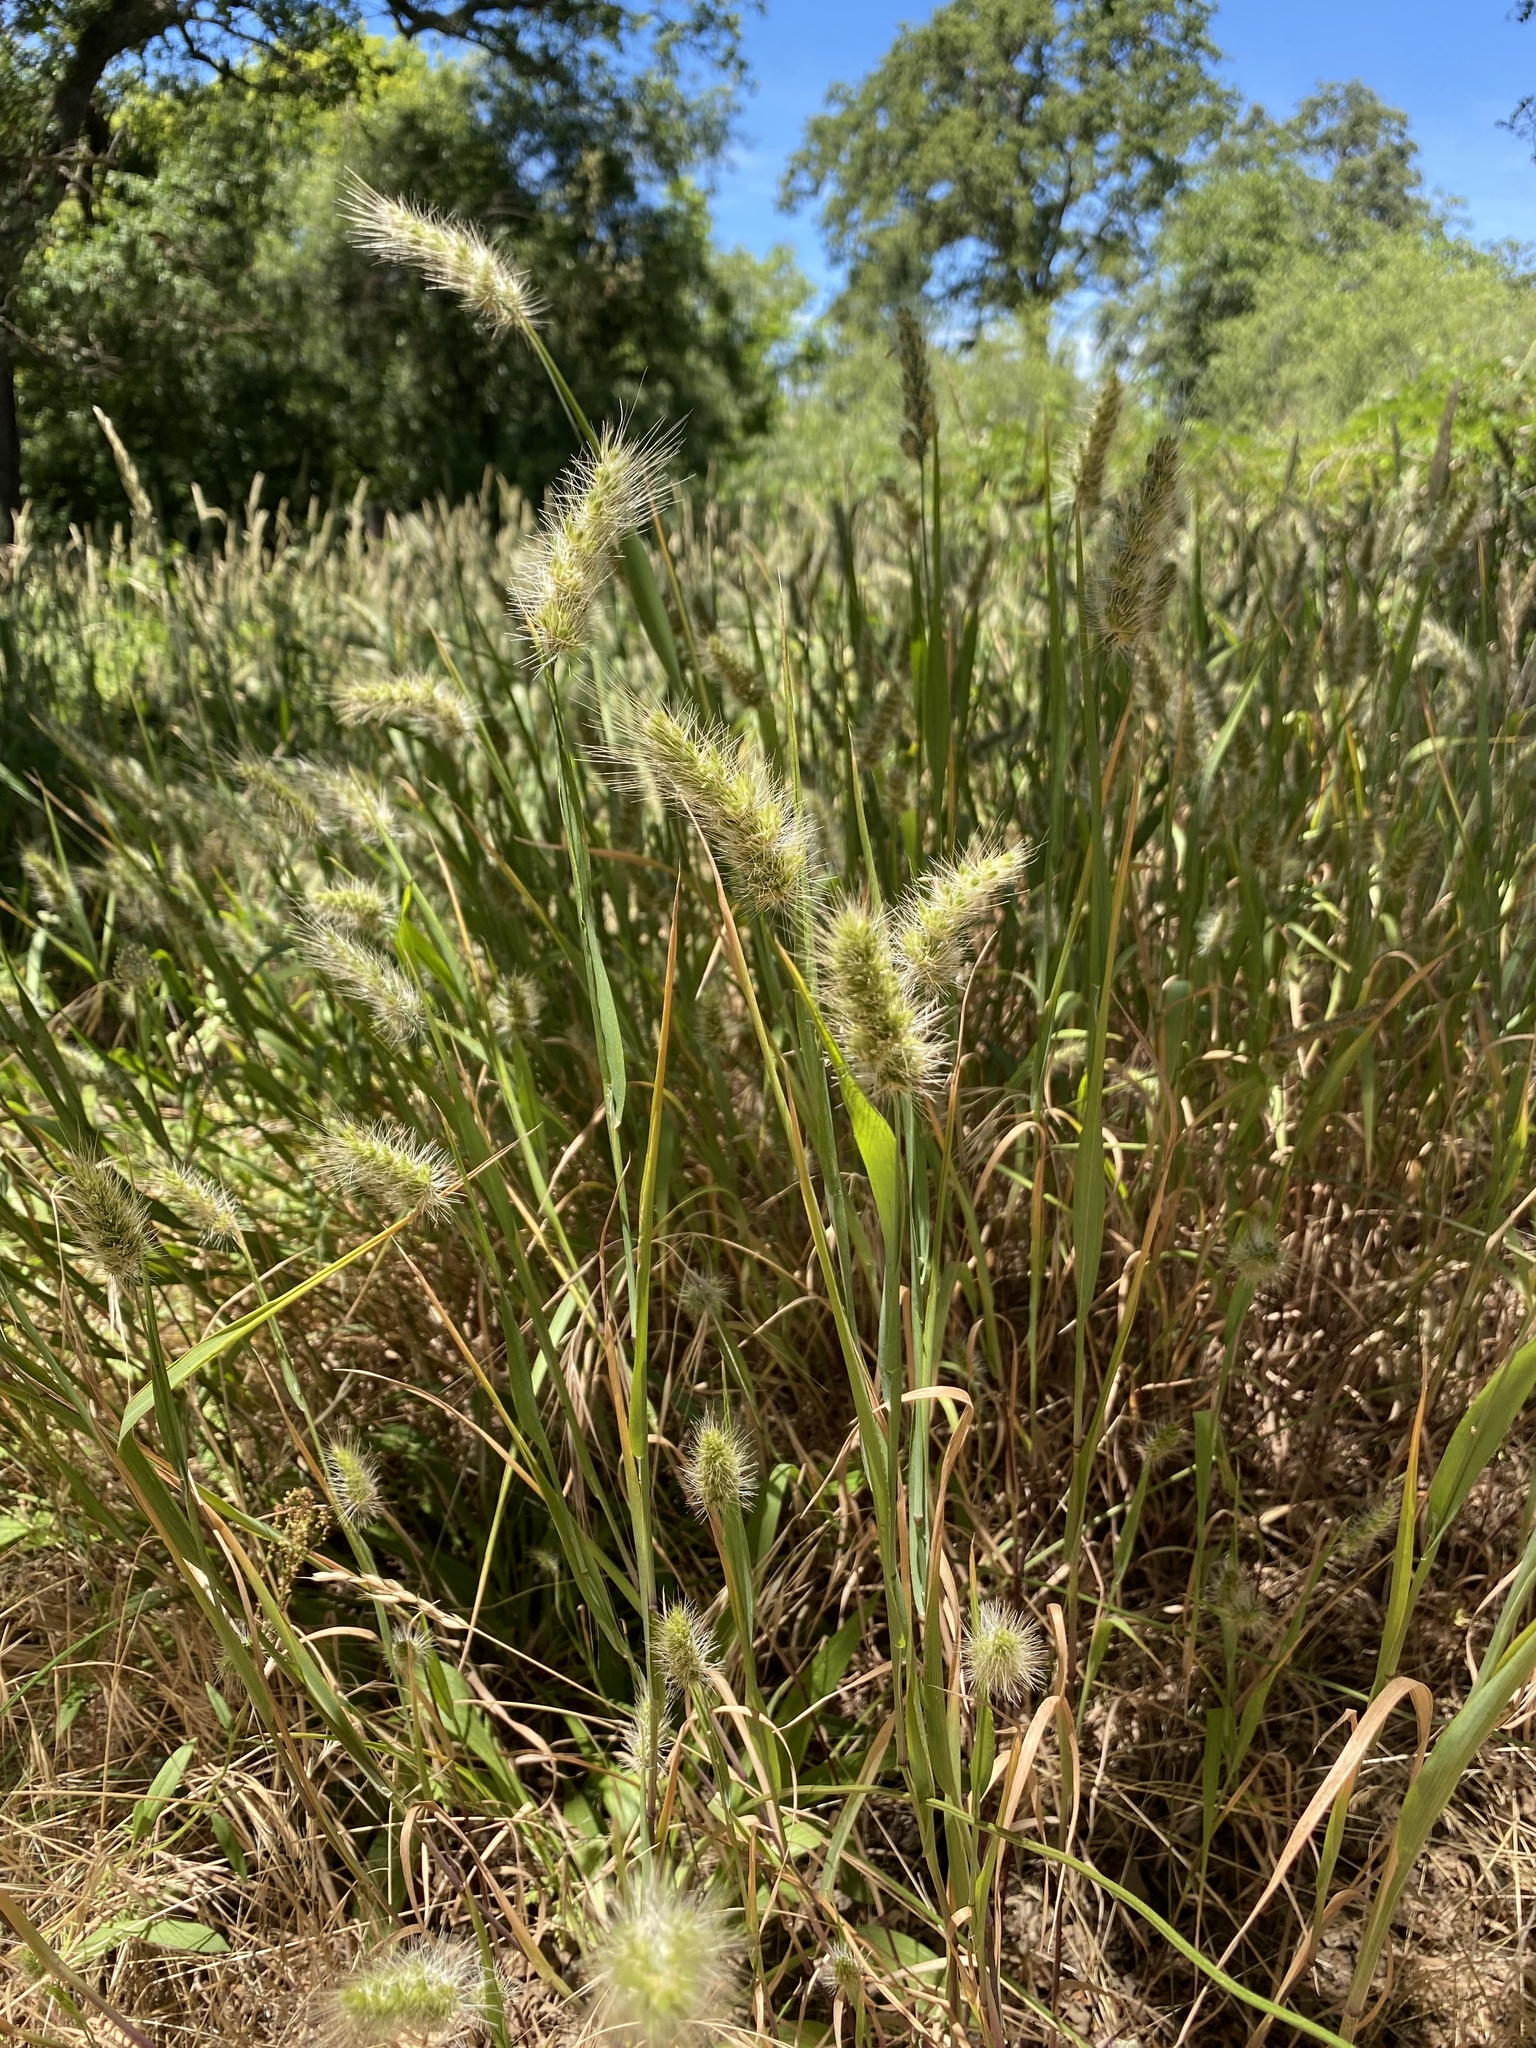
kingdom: Plantae
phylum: Tracheophyta
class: Liliopsida
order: Poales
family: Poaceae
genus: Cynosurus
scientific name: Cynosurus echinatus
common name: Rough dog's-tail
